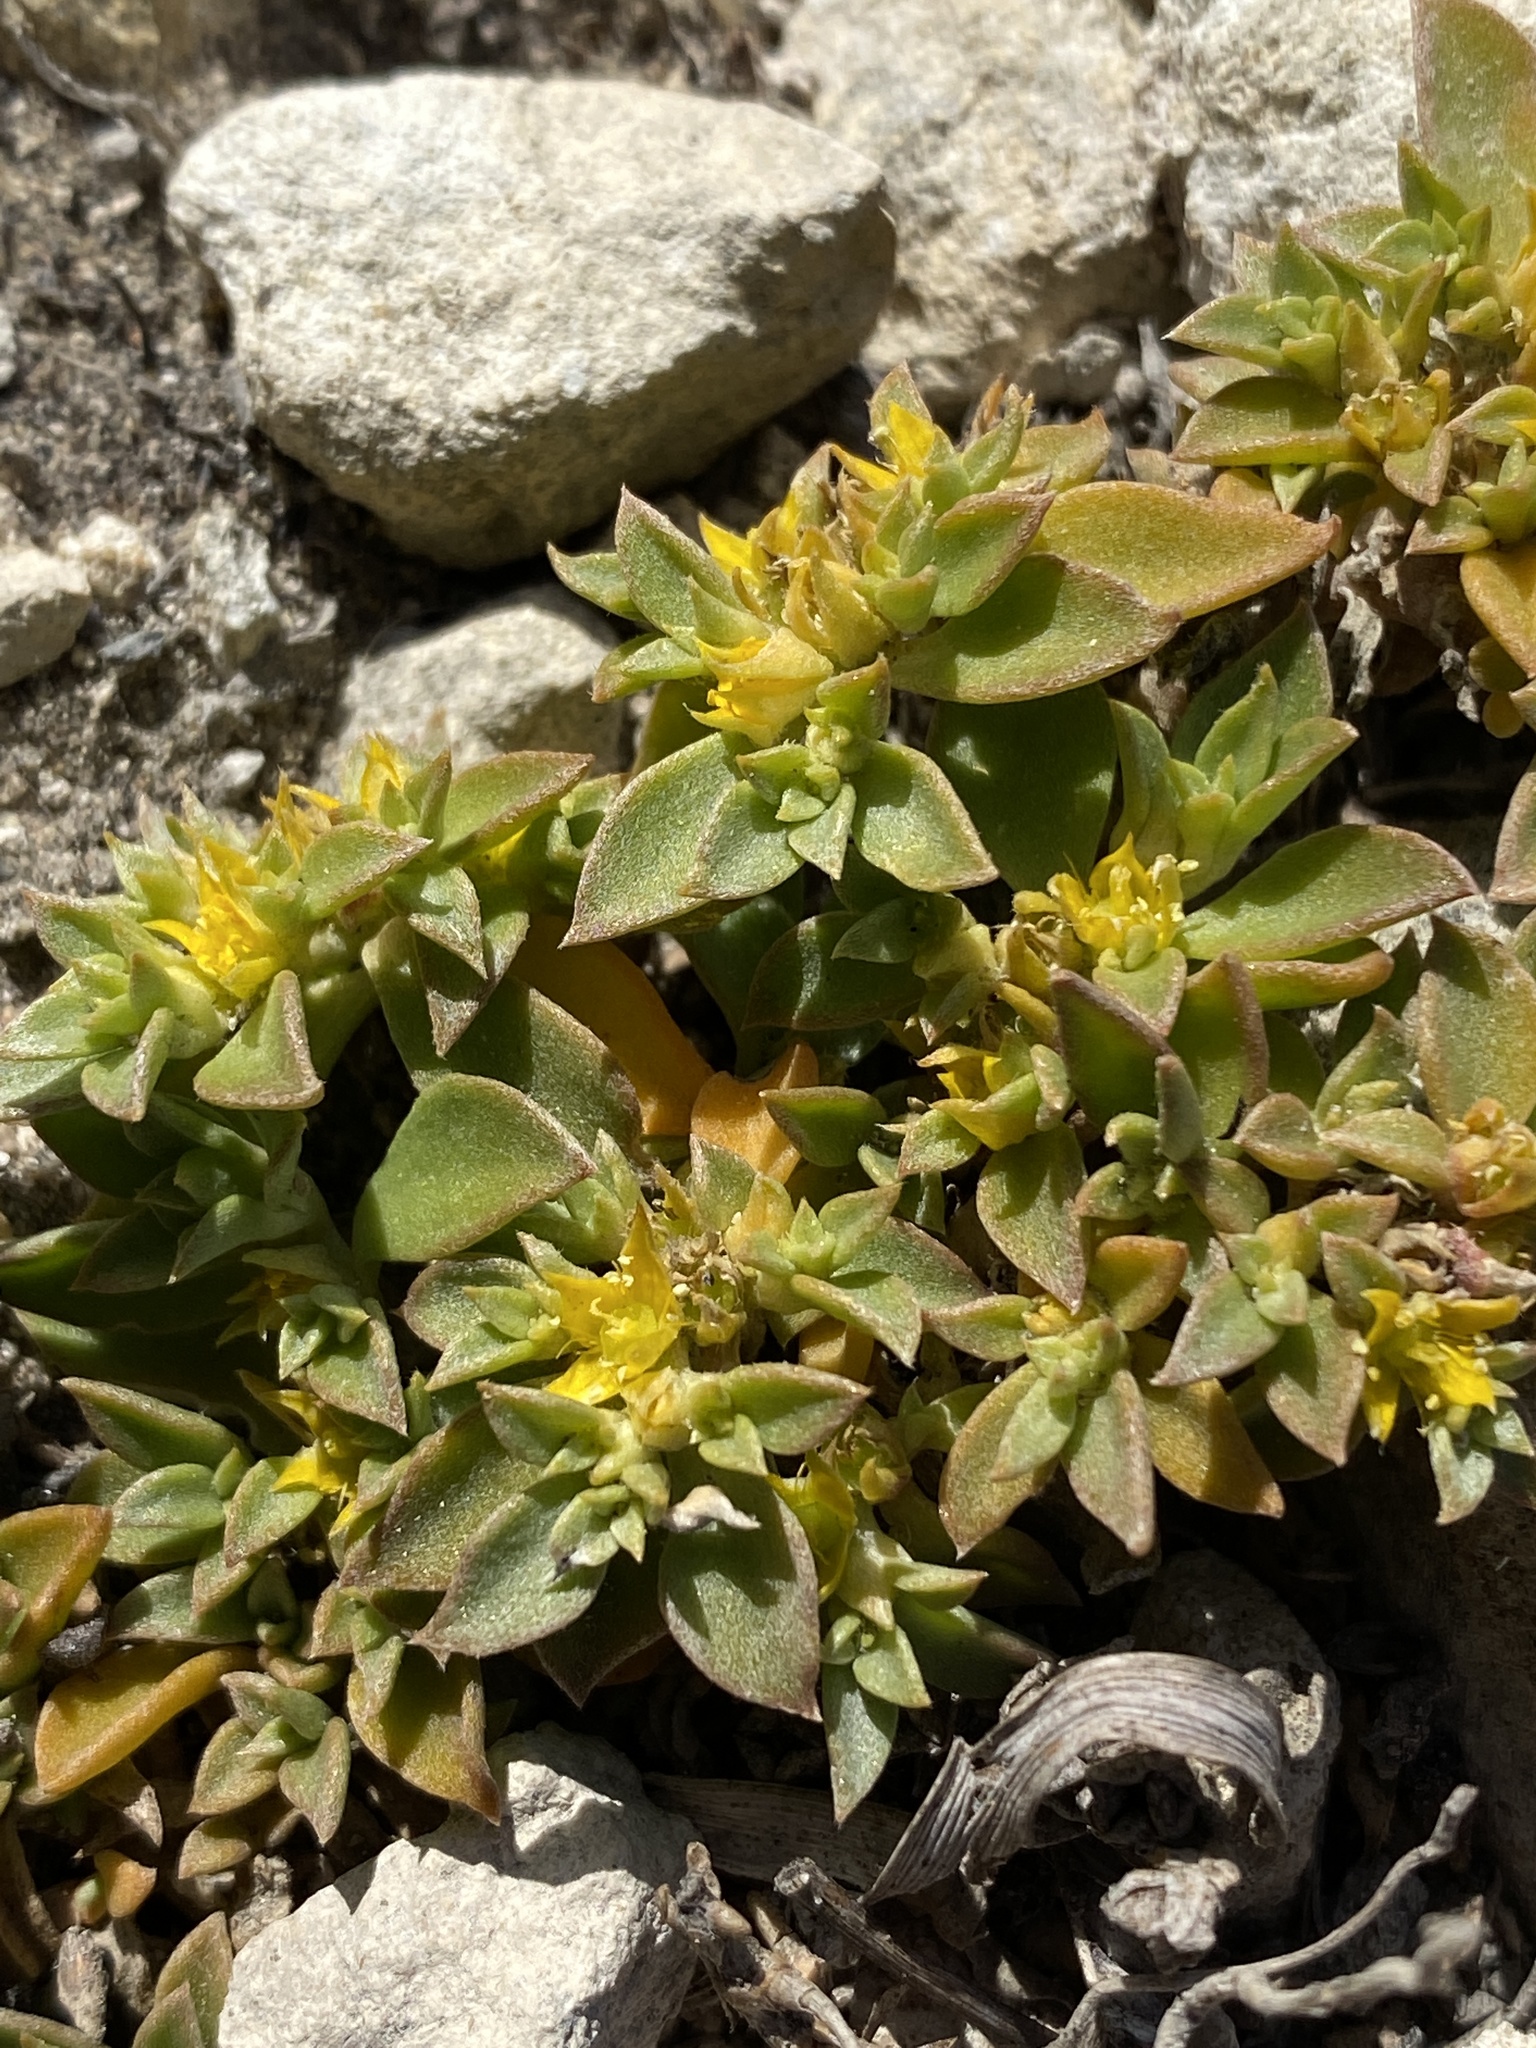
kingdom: Plantae
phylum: Tracheophyta
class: Magnoliopsida
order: Caryophyllales
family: Aizoaceae
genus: Aizoon
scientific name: Aizoon rigidum
